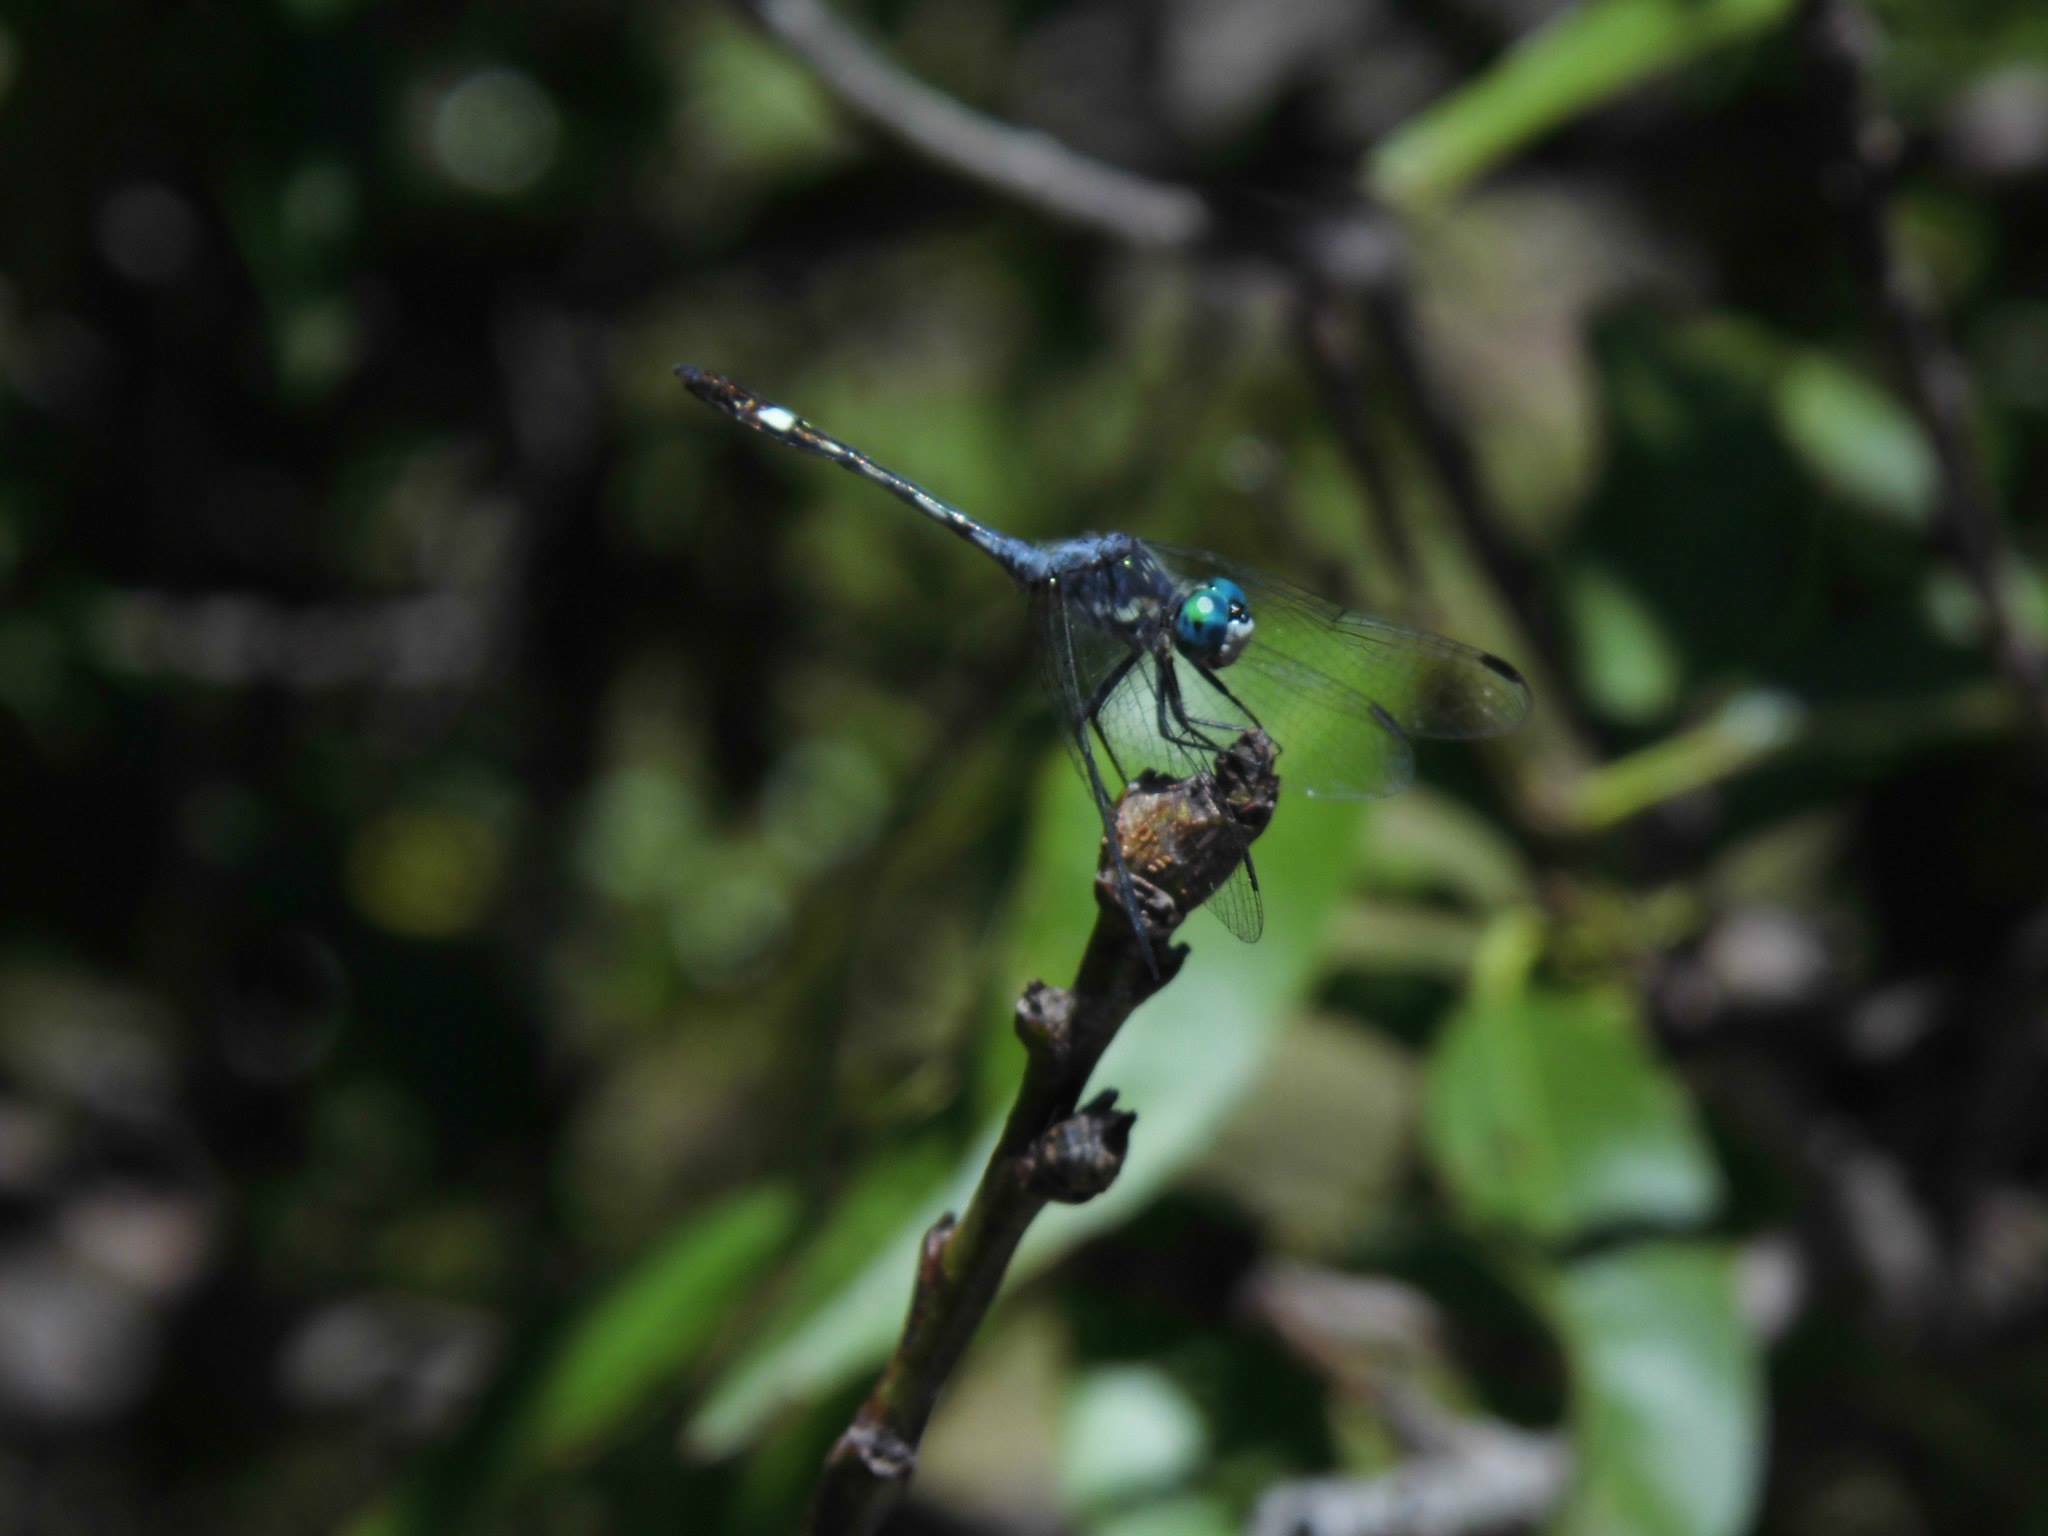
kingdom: Animalia
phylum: Arthropoda
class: Insecta
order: Odonata
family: Libellulidae
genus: Micrathyria
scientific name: Micrathyria longifasciata
